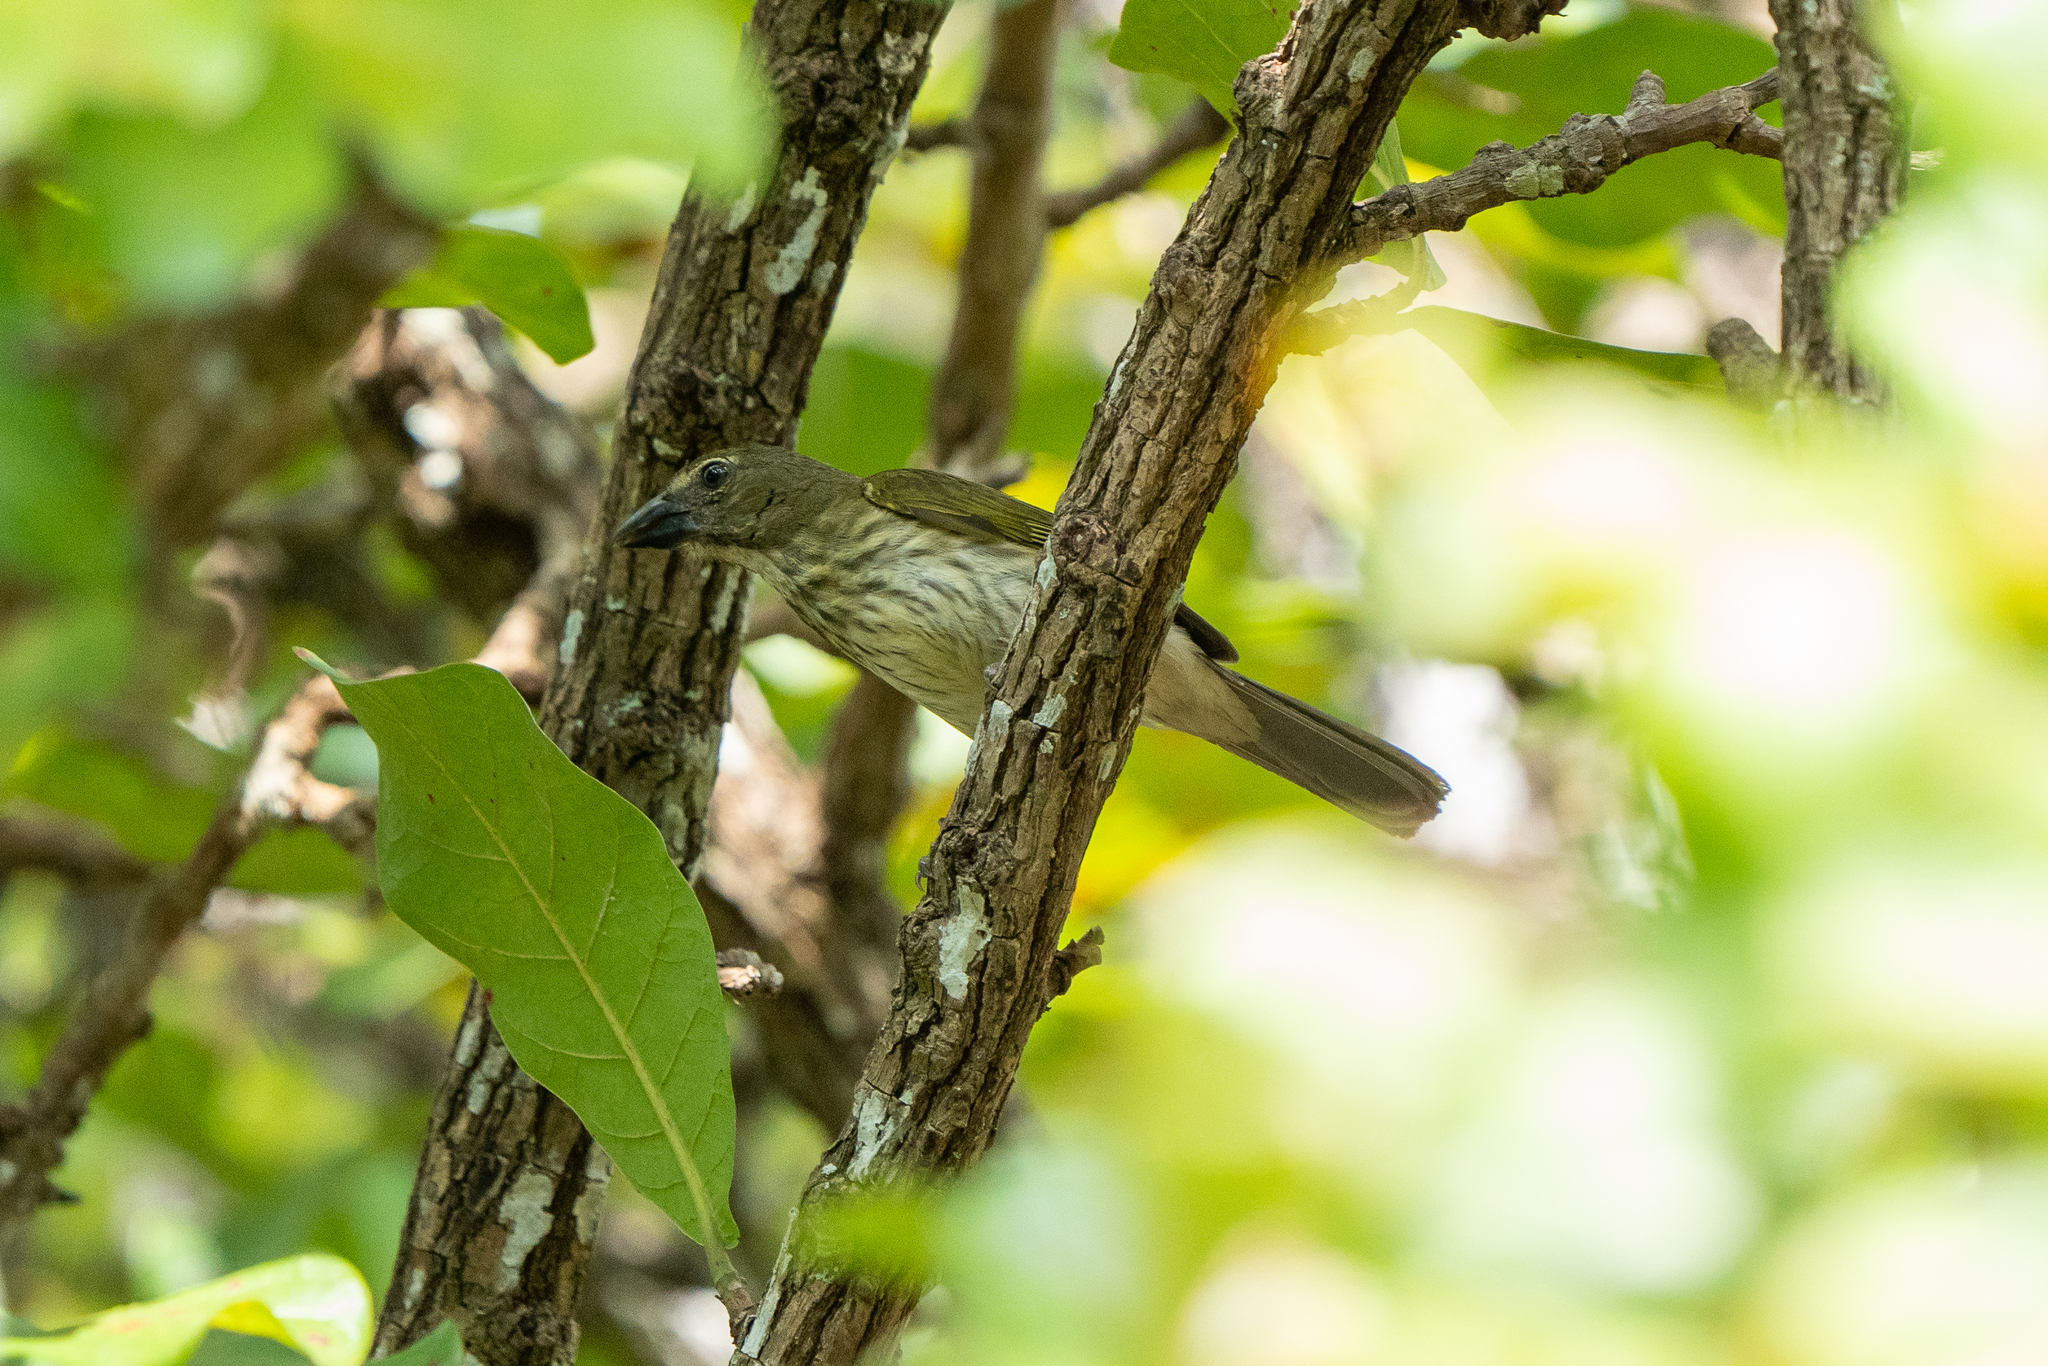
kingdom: Animalia
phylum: Chordata
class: Aves
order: Passeriformes
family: Thraupidae
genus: Saltator
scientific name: Saltator striatipectus
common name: Streaked saltator
